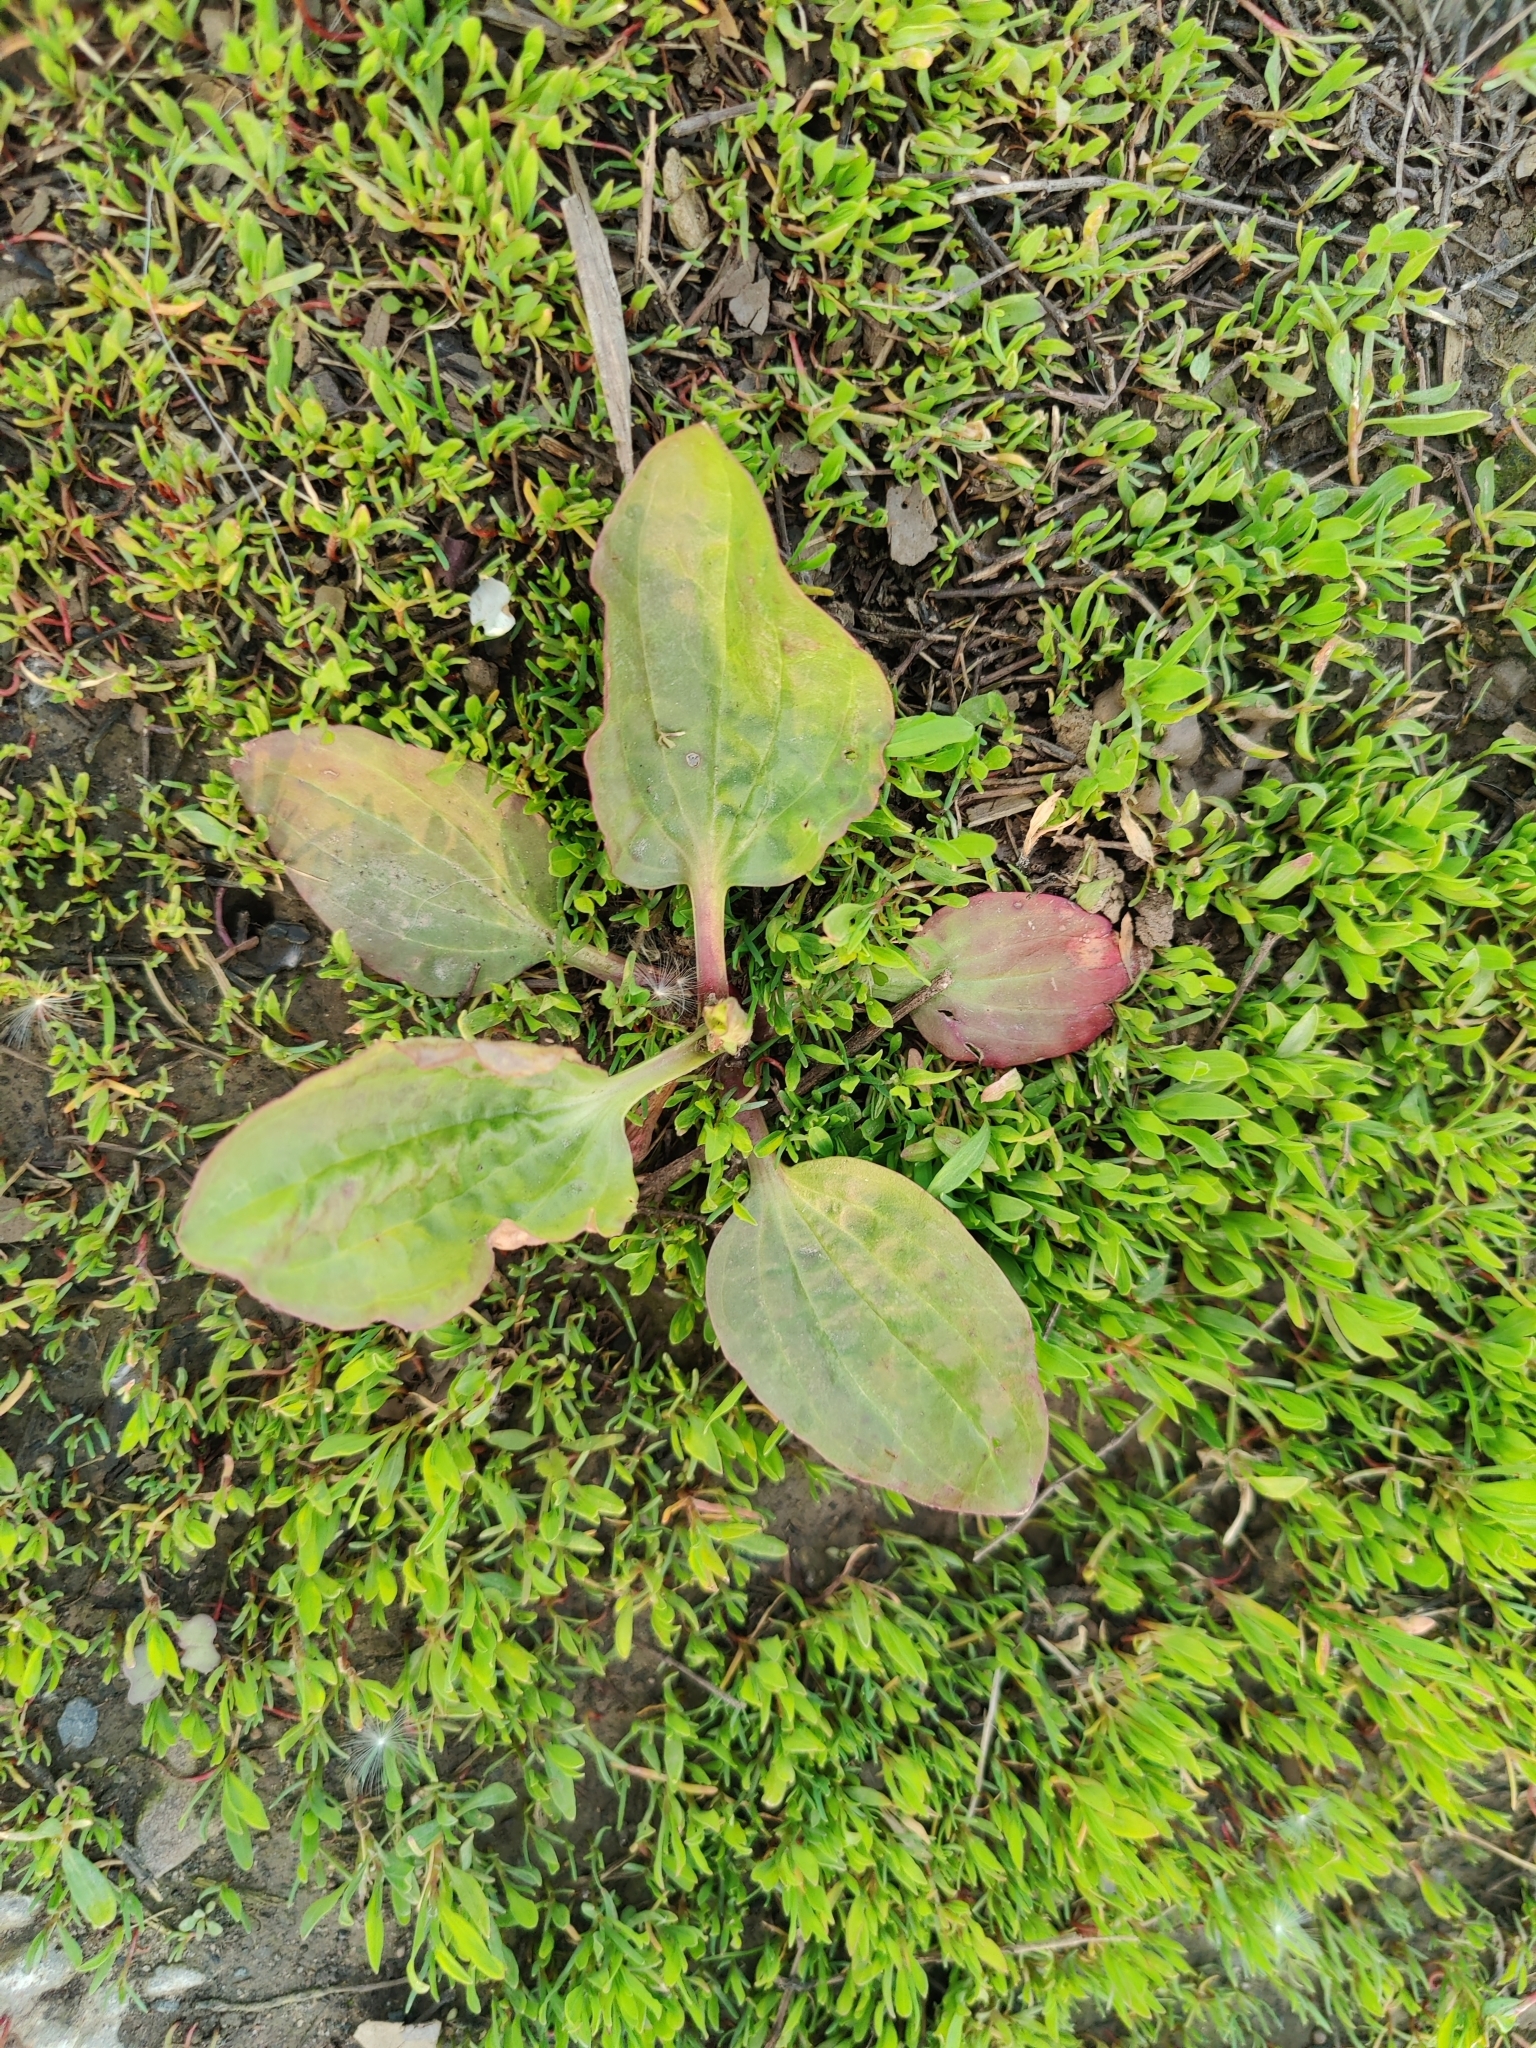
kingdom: Plantae
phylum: Tracheophyta
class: Magnoliopsida
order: Lamiales
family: Plantaginaceae
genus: Plantago
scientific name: Plantago major
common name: Common plantain
